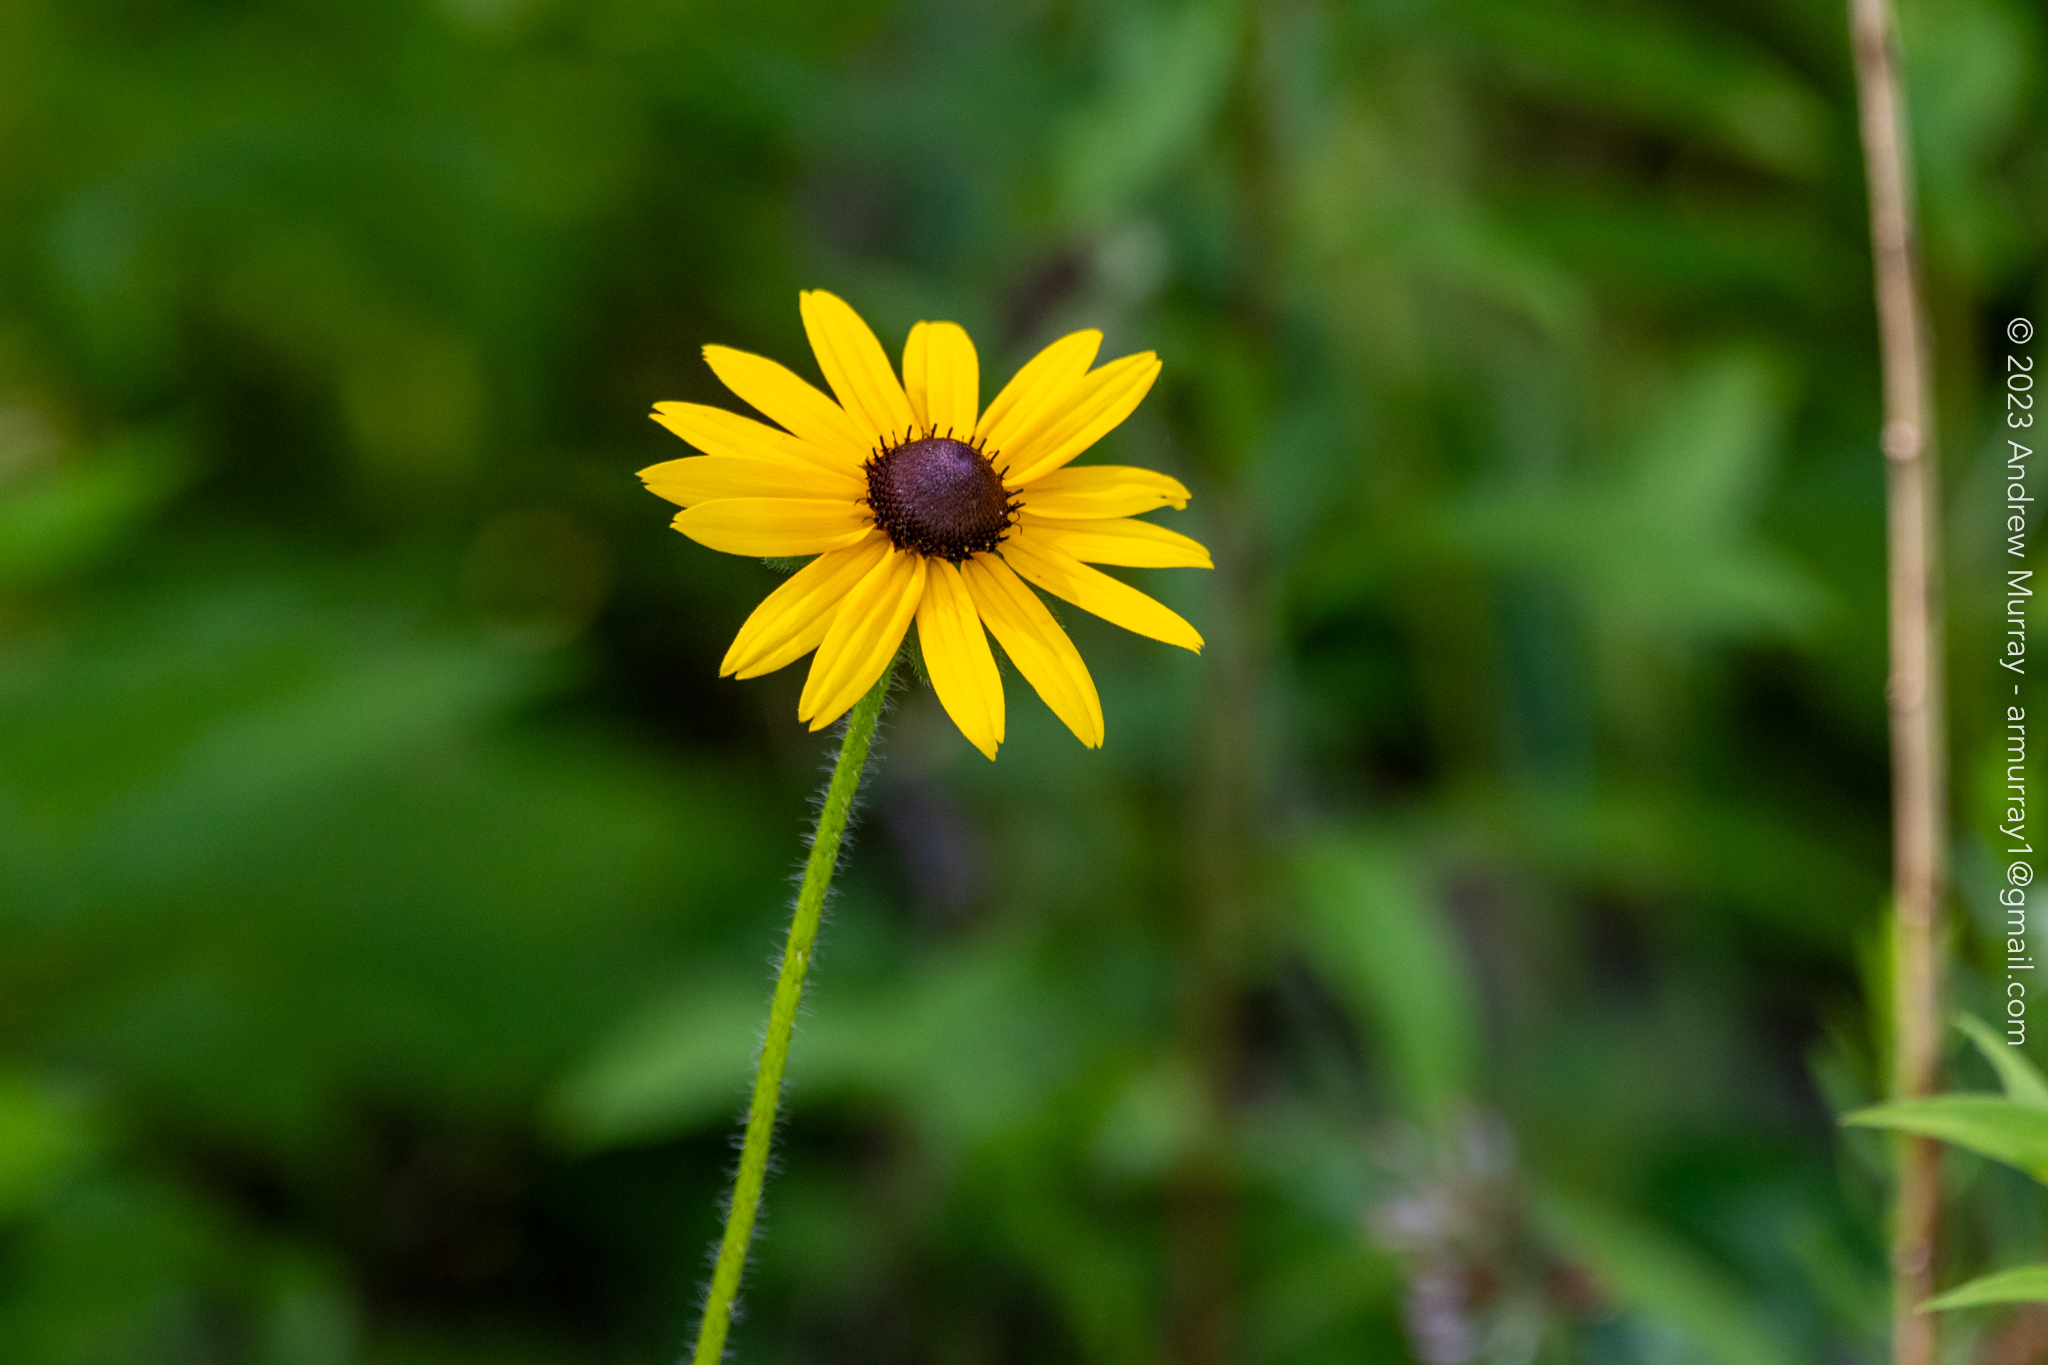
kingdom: Plantae
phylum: Tracheophyta
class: Magnoliopsida
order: Asterales
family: Asteraceae
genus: Rudbeckia
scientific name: Rudbeckia hirta
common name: Black-eyed-susan
